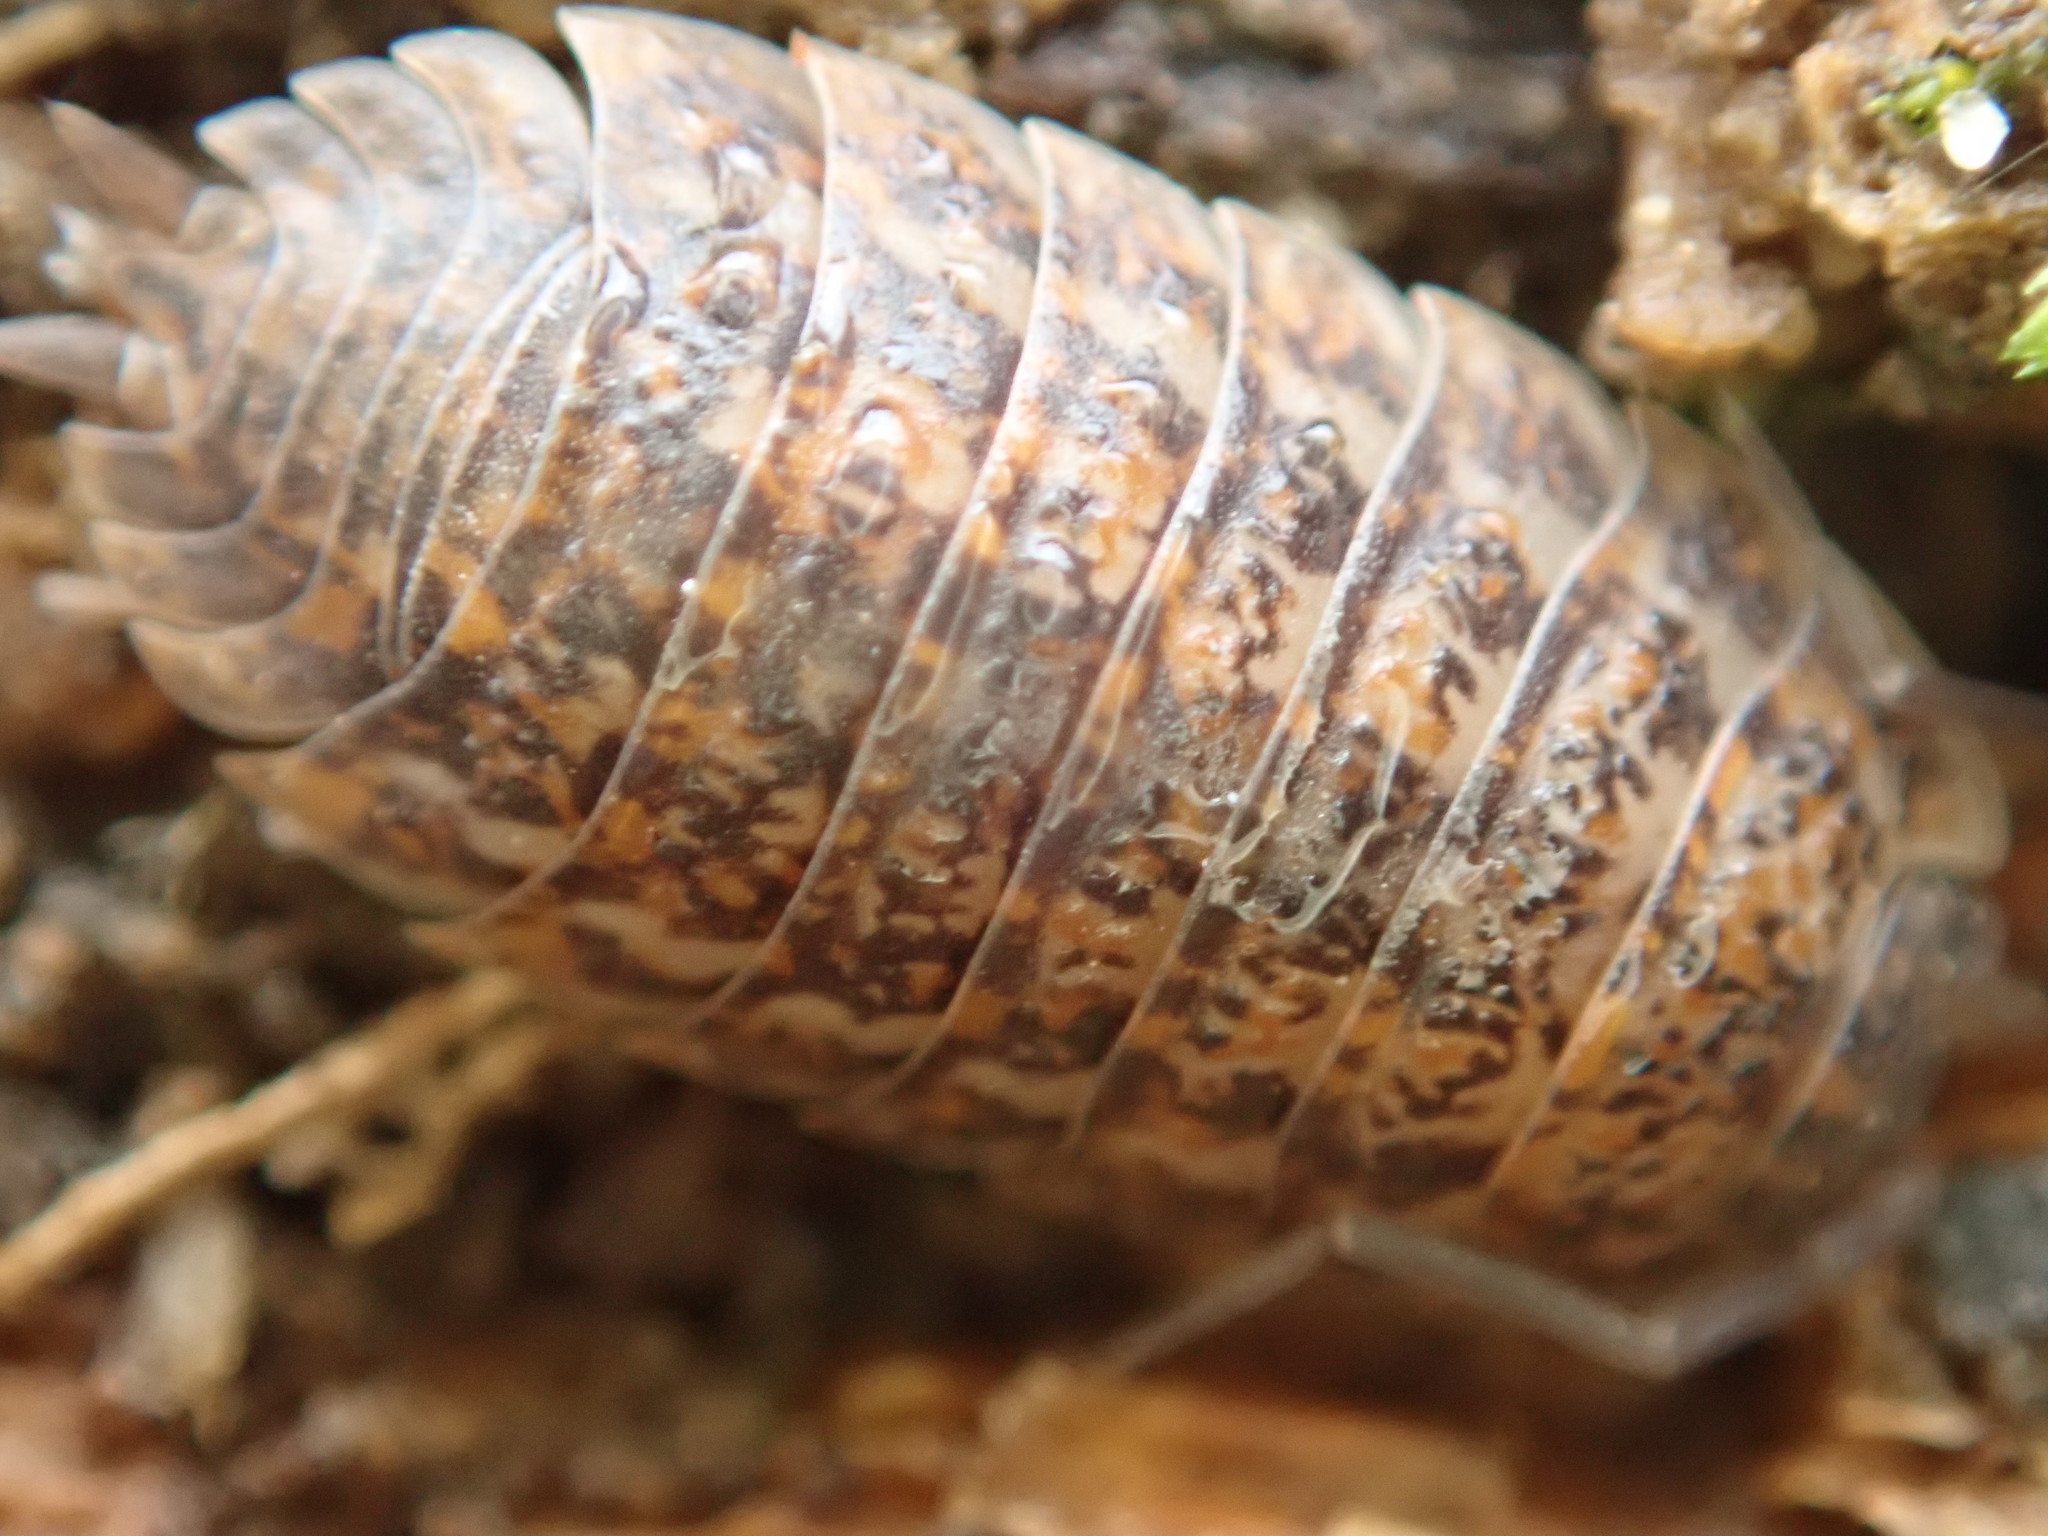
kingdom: Animalia
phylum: Arthropoda
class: Malacostraca
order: Isopoda
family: Trachelipodidae
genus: Trachelipus
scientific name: Trachelipus rathkii
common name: Isopod
